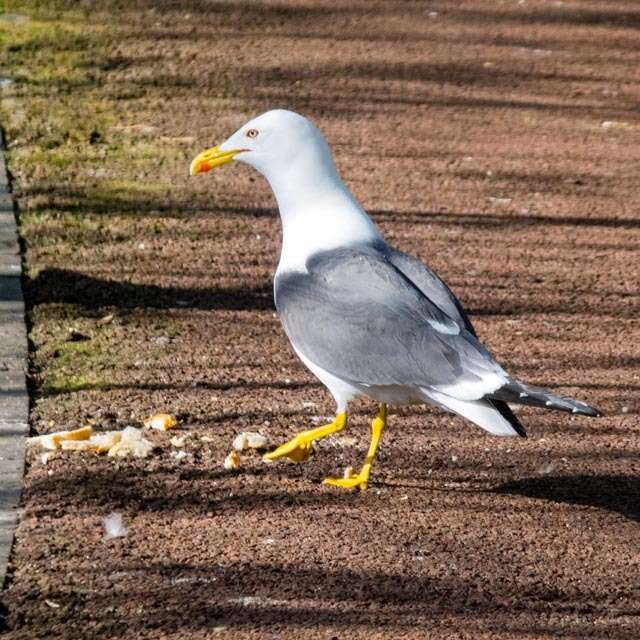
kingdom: Animalia
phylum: Chordata
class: Aves
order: Charadriiformes
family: Laridae
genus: Larus
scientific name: Larus fuscus
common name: Lesser black-backed gull
